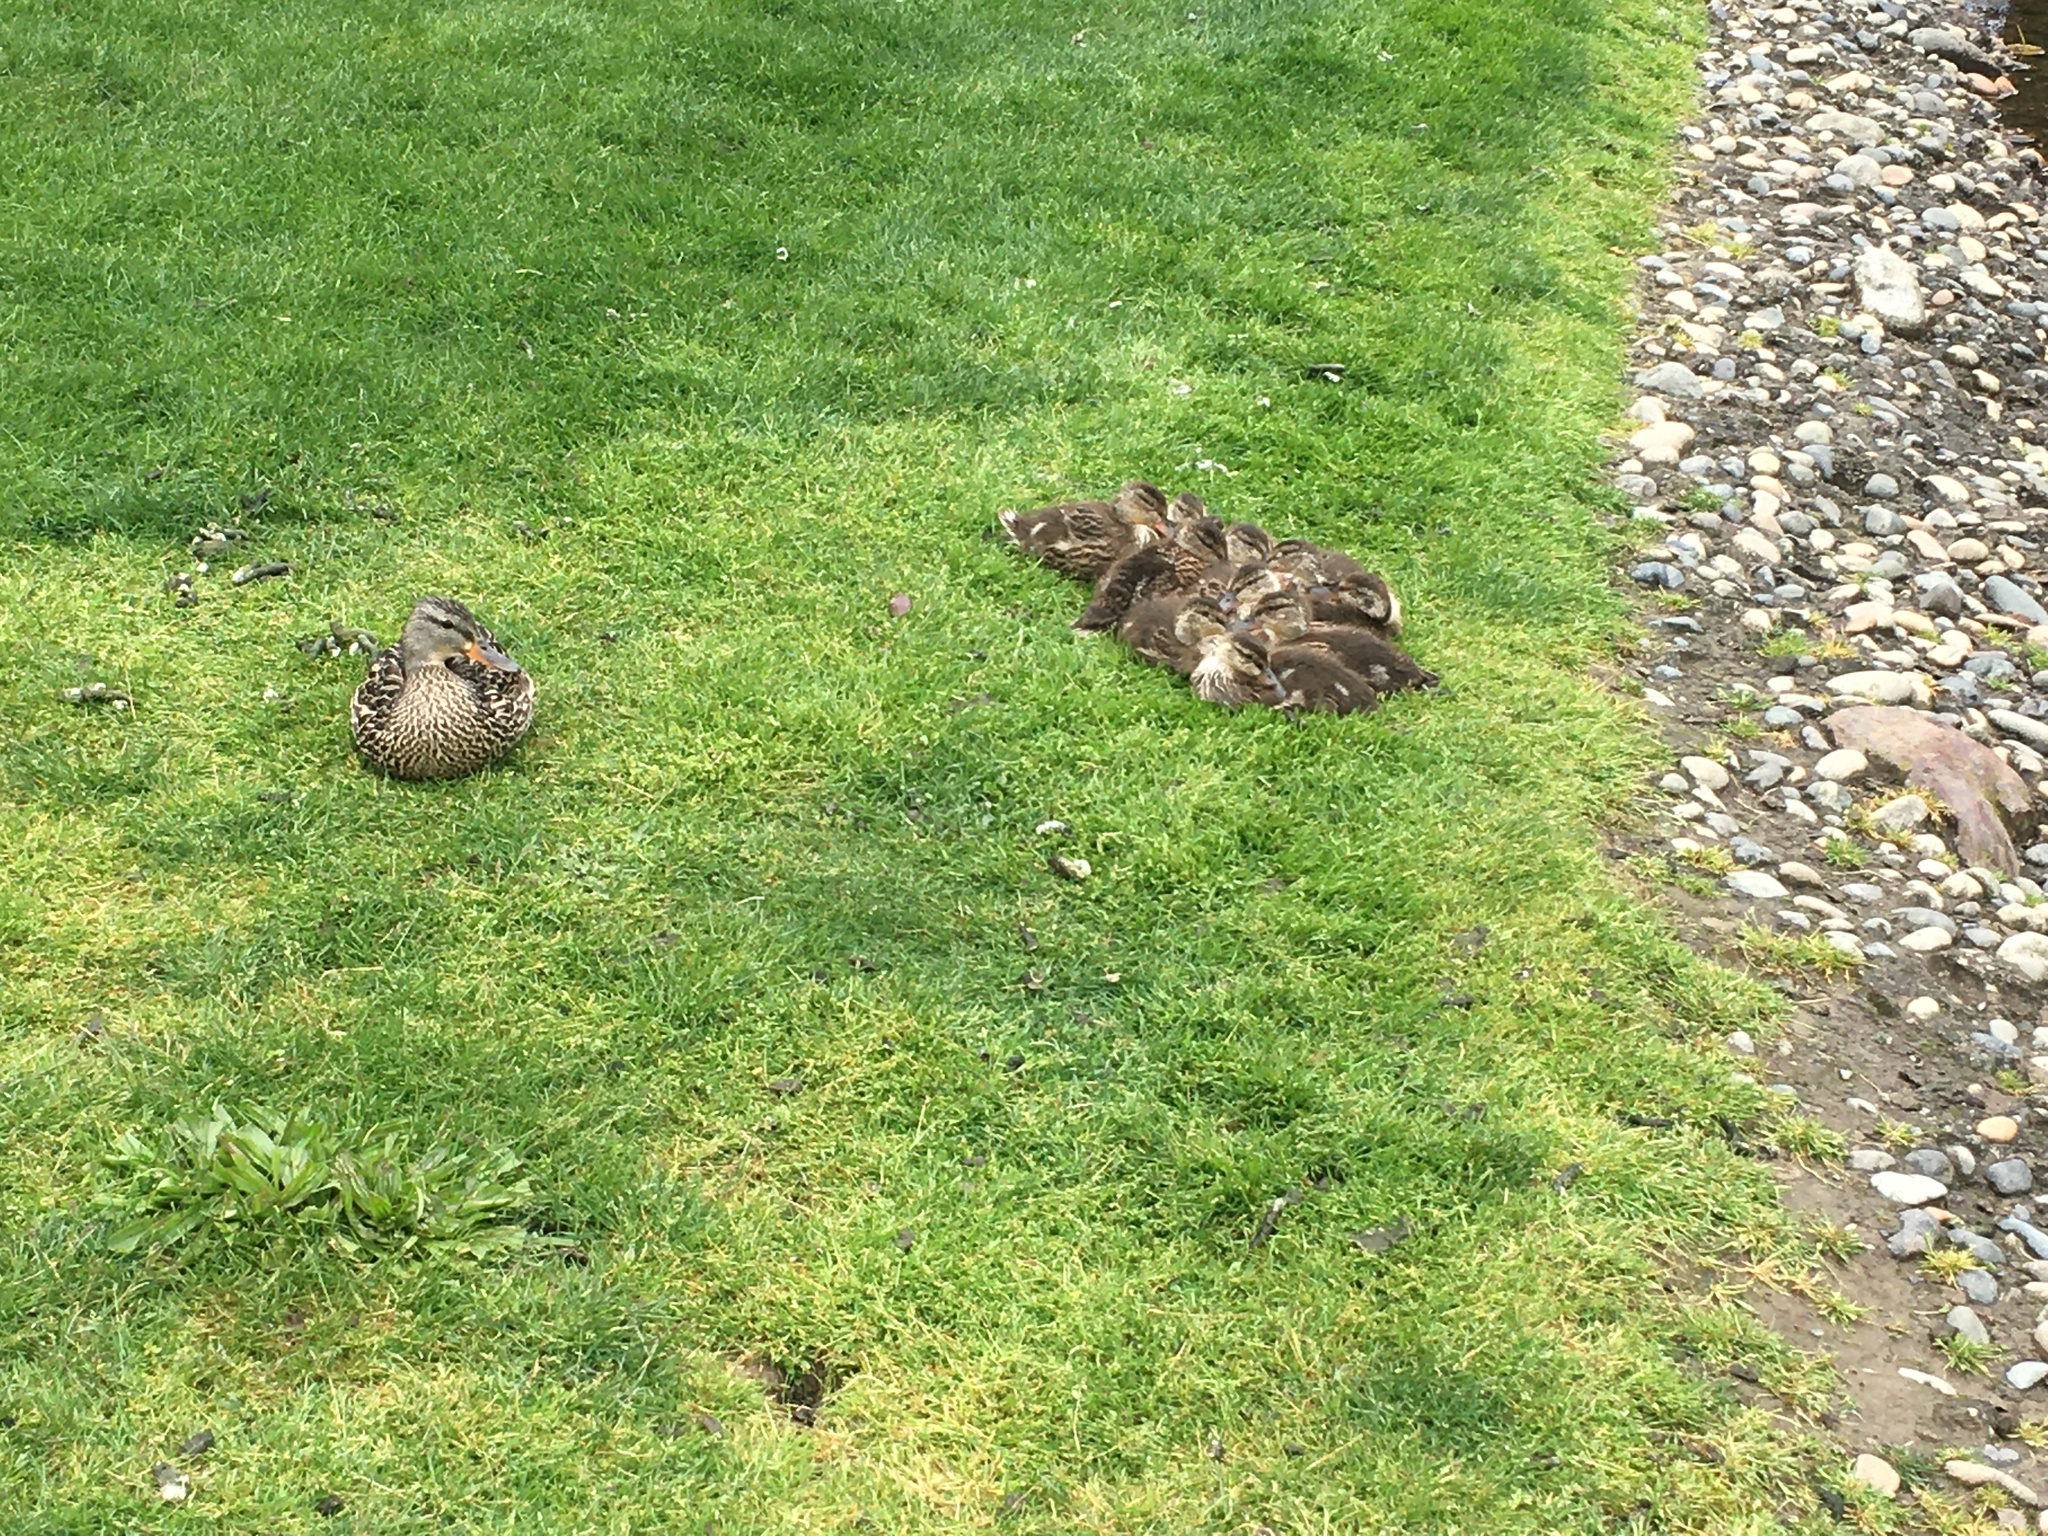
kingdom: Animalia
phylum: Chordata
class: Aves
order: Anseriformes
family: Anatidae
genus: Anas
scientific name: Anas platyrhynchos
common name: Mallard
